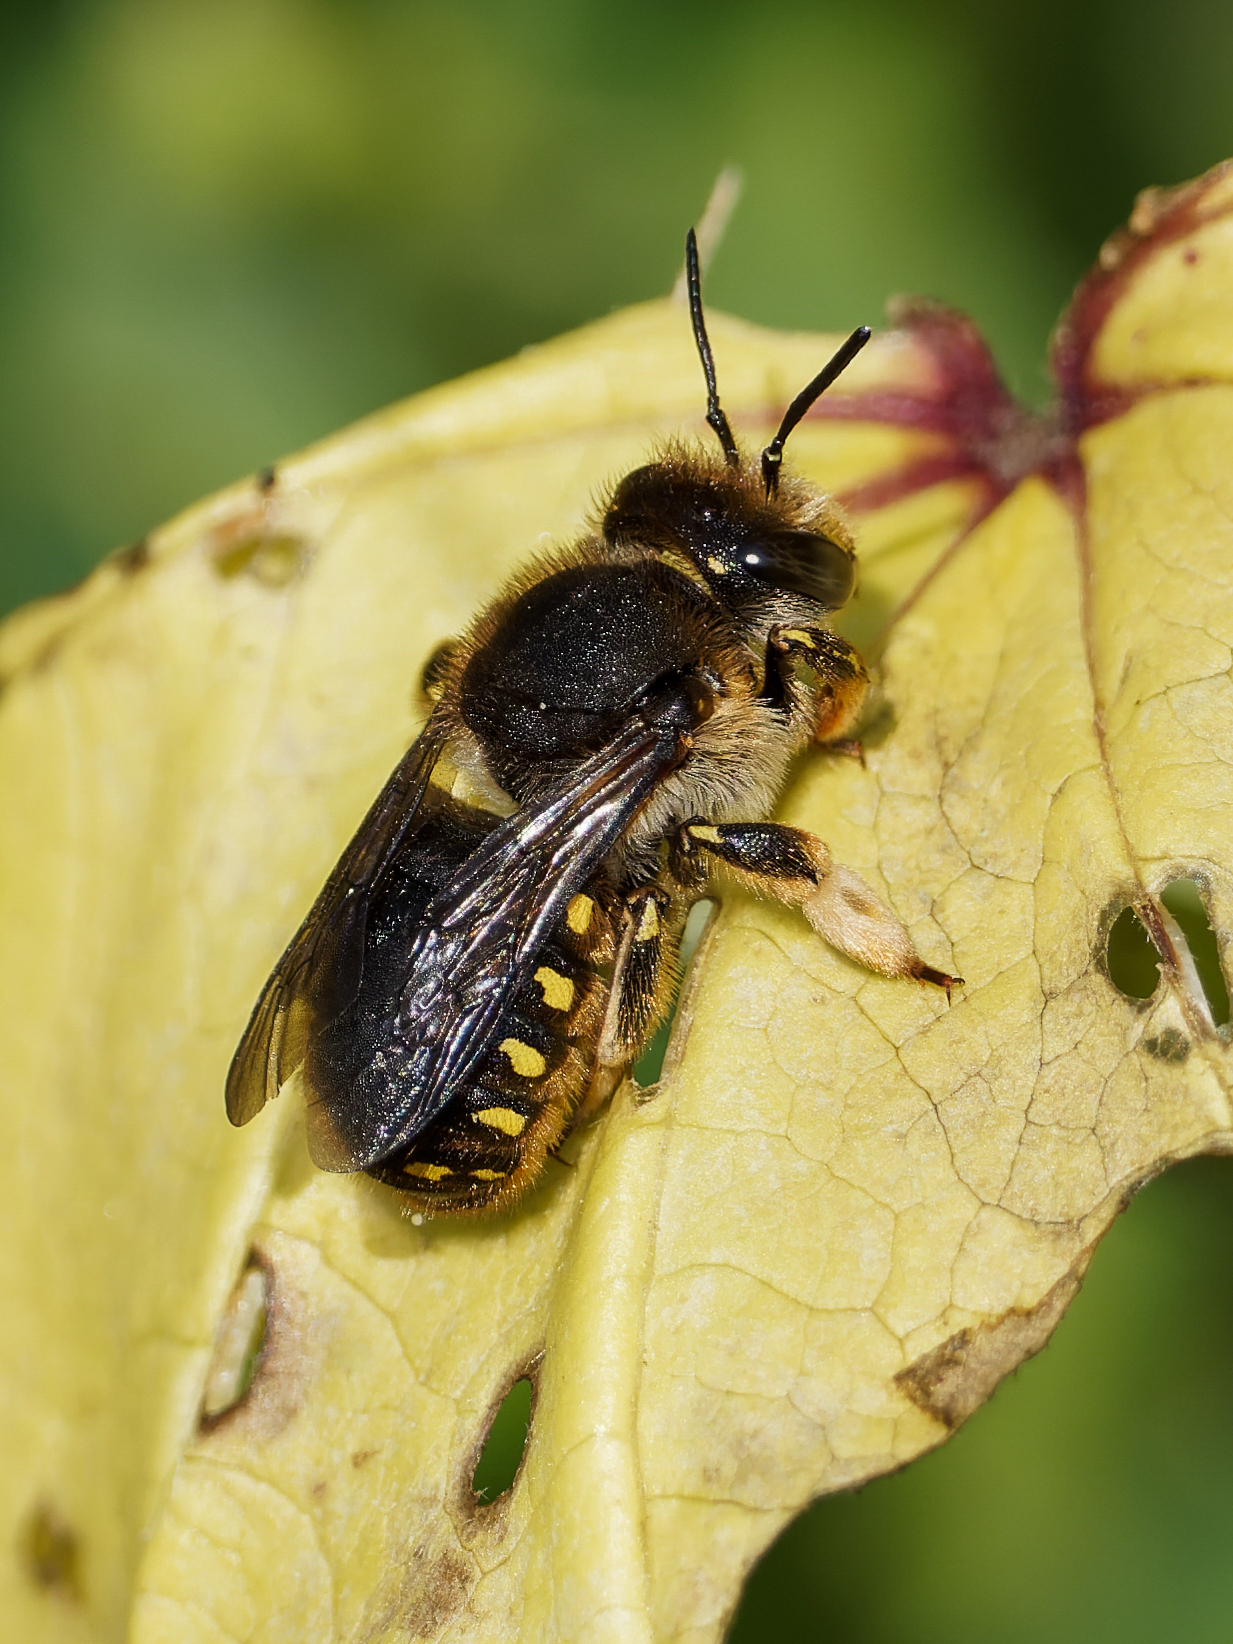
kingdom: Animalia
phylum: Arthropoda
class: Insecta
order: Hymenoptera
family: Megachilidae
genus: Anthidium
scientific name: Anthidium manicatum
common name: Wool carder bee
